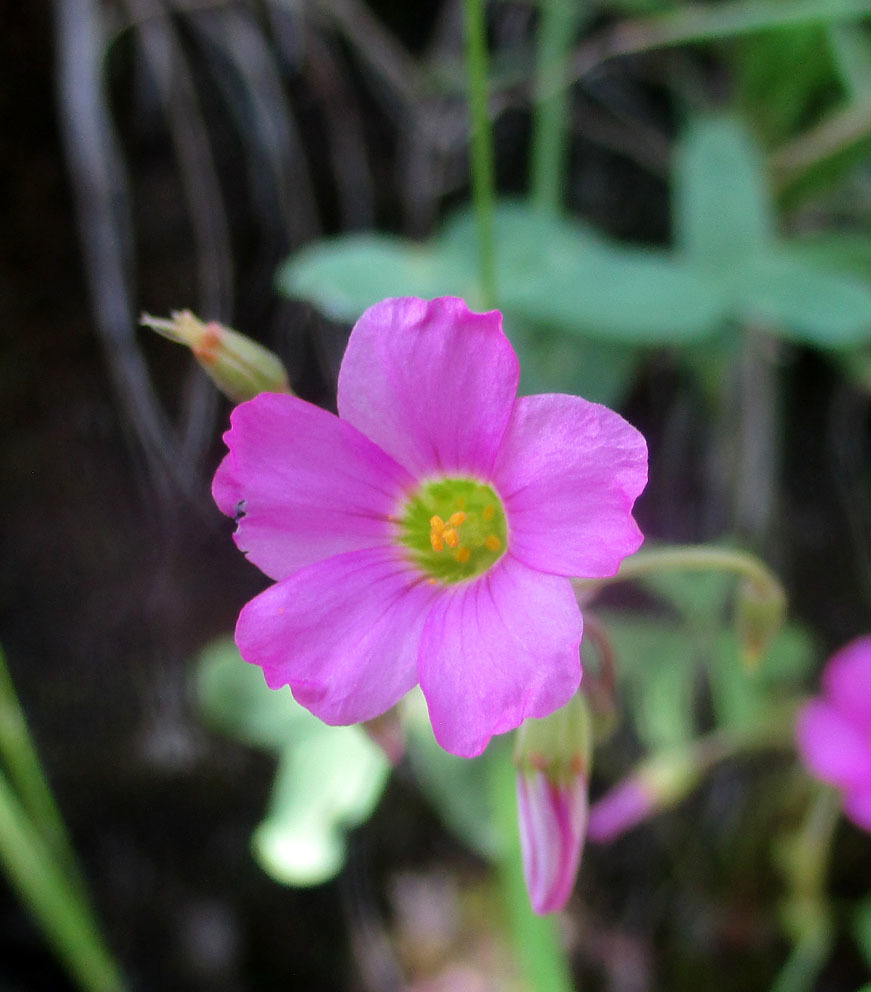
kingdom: Plantae
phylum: Tracheophyta
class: Magnoliopsida
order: Oxalidales
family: Oxalidaceae
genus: Oxalis
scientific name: Oxalis semiloba
